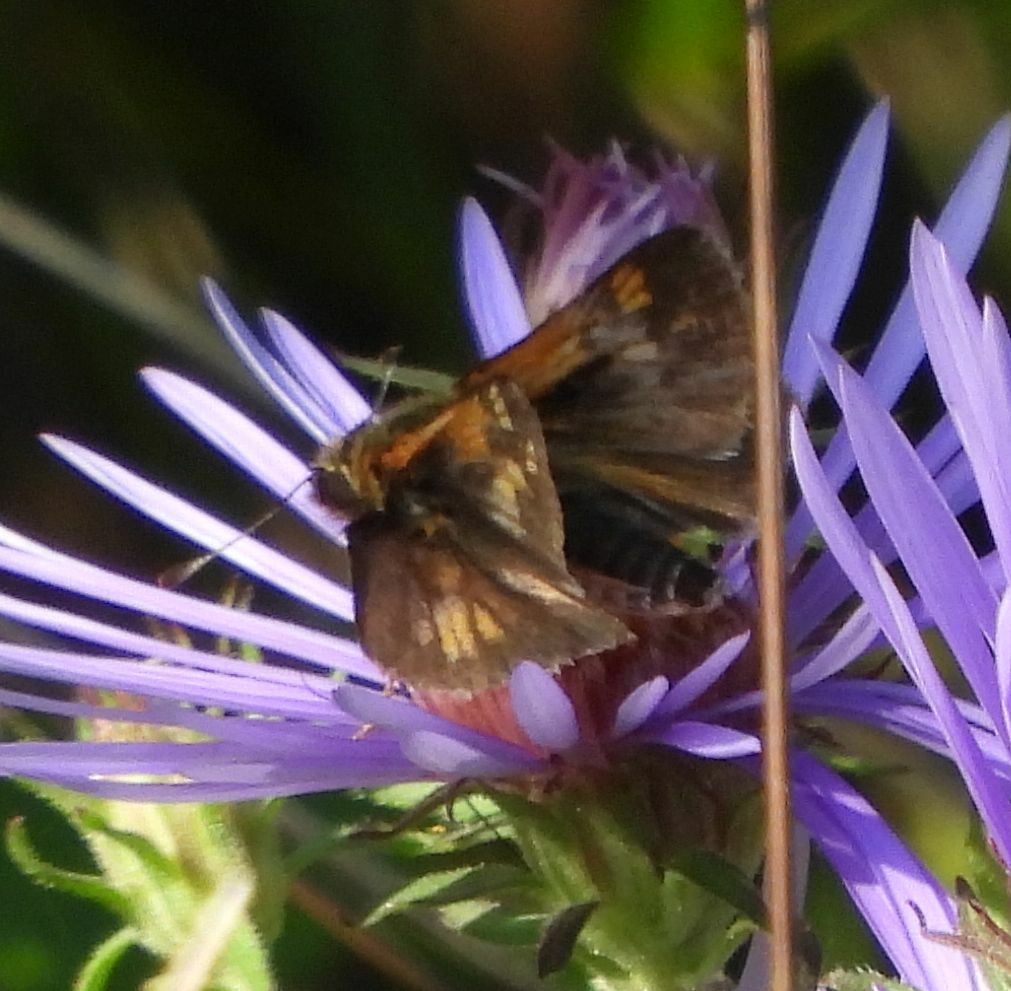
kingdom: Animalia
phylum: Arthropoda
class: Insecta
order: Lepidoptera
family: Hesperiidae
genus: Polites
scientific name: Polites coras
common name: Peck's skipper
